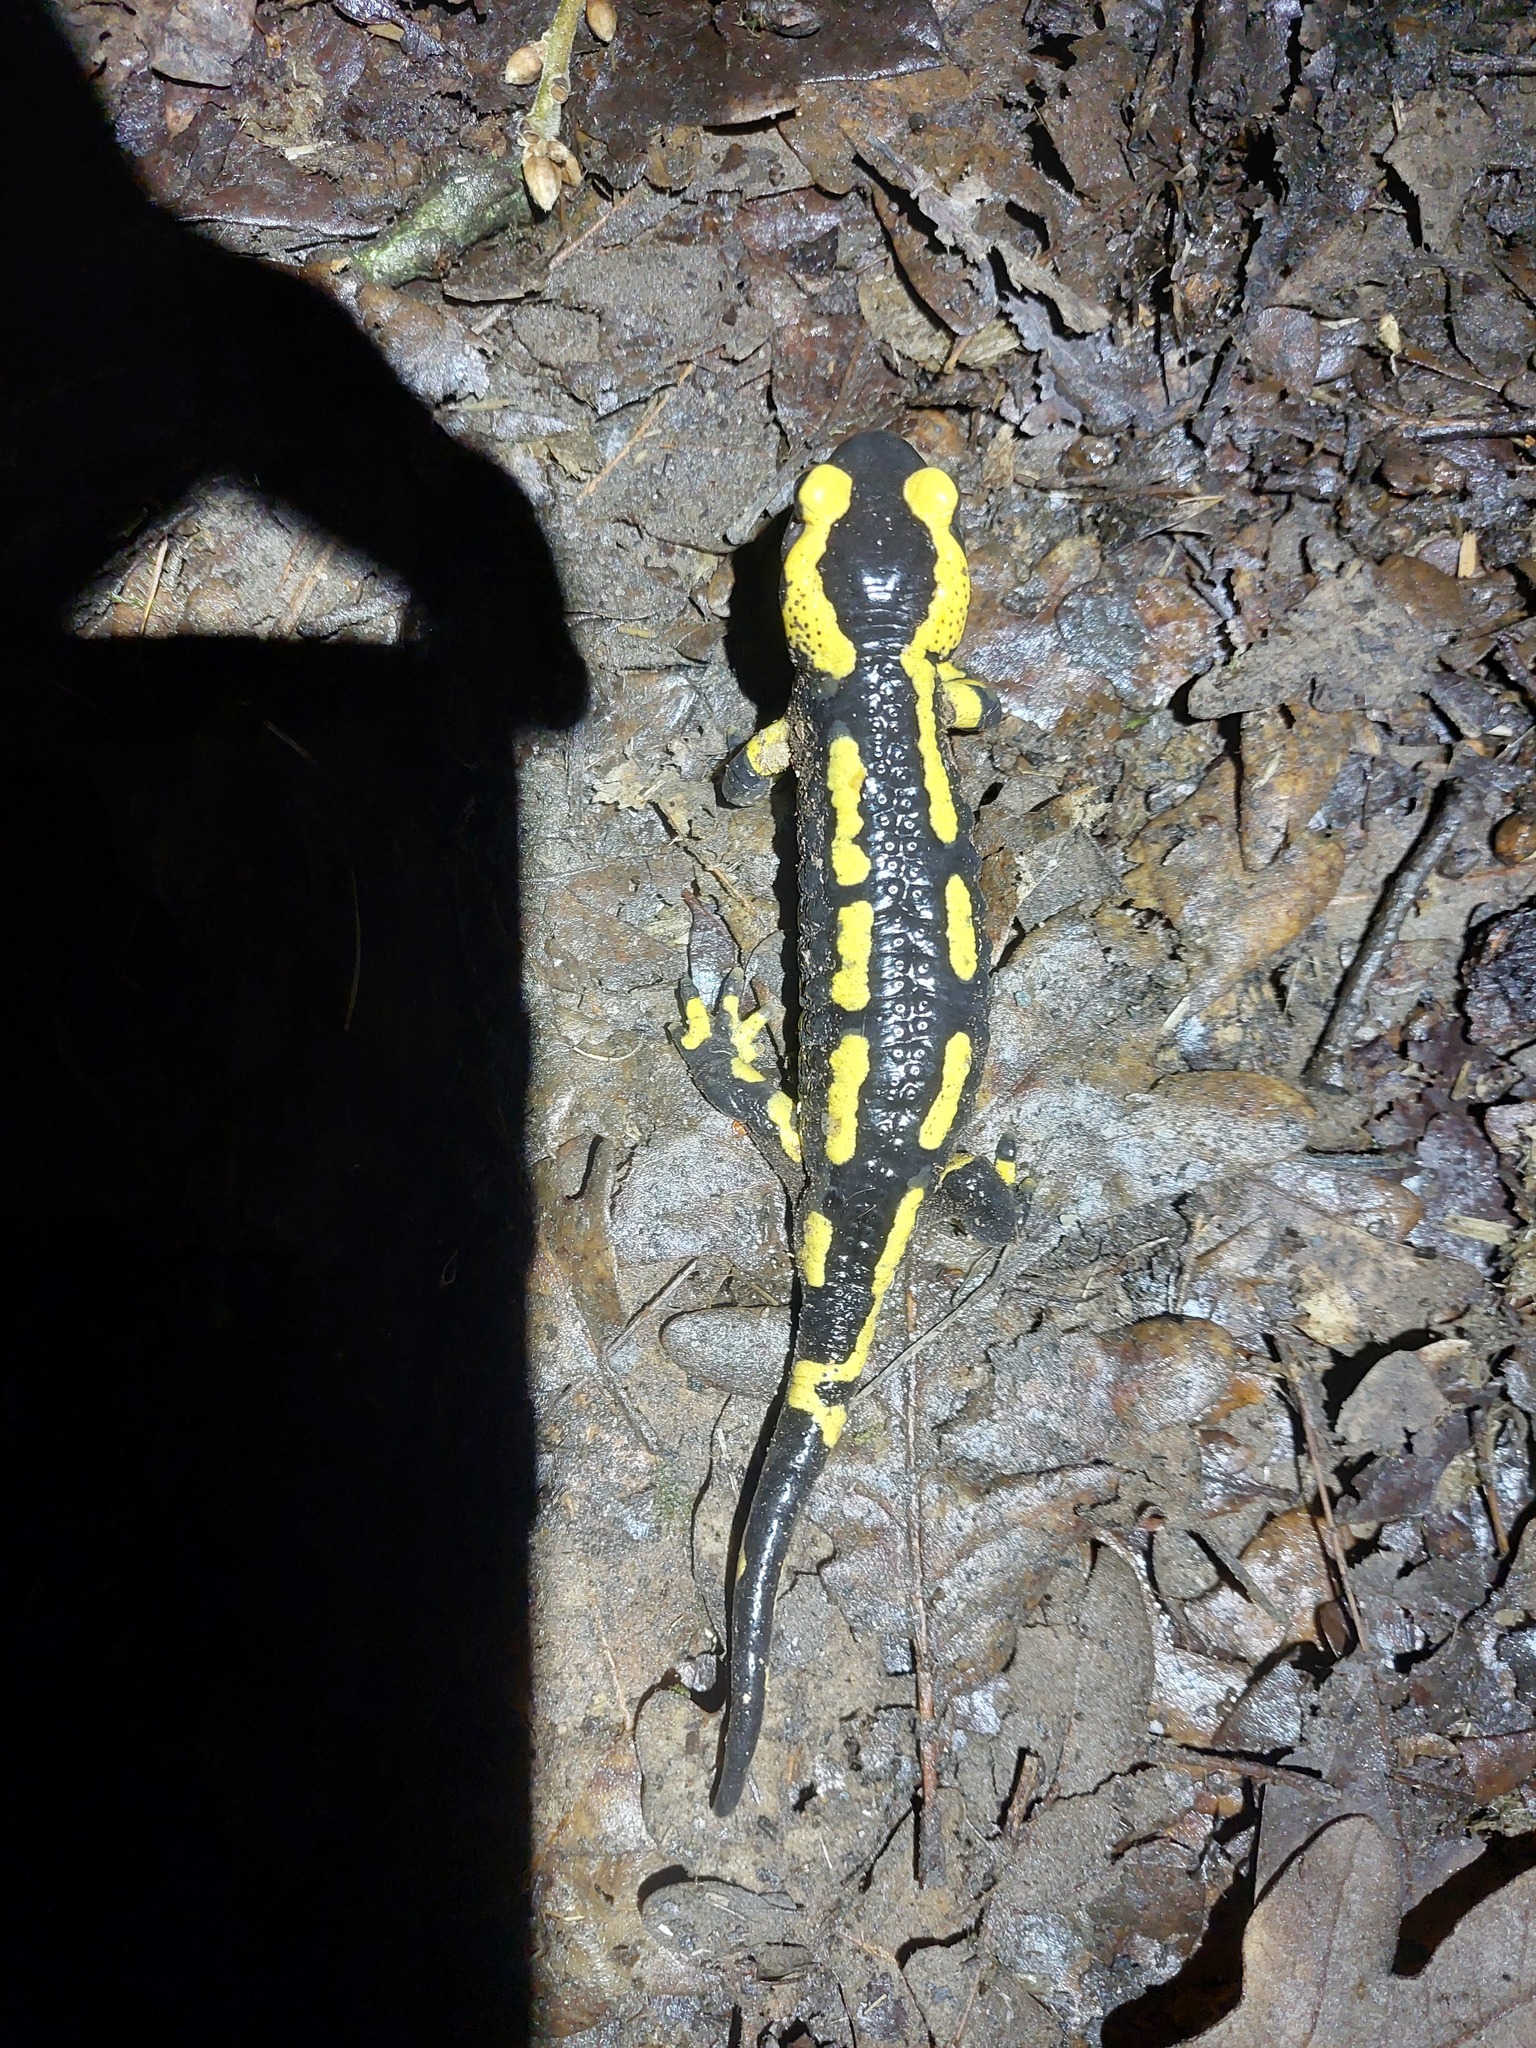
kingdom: Animalia
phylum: Chordata
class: Amphibia
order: Caudata
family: Salamandridae
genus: Salamandra
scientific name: Salamandra salamandra
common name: Fire salamander
